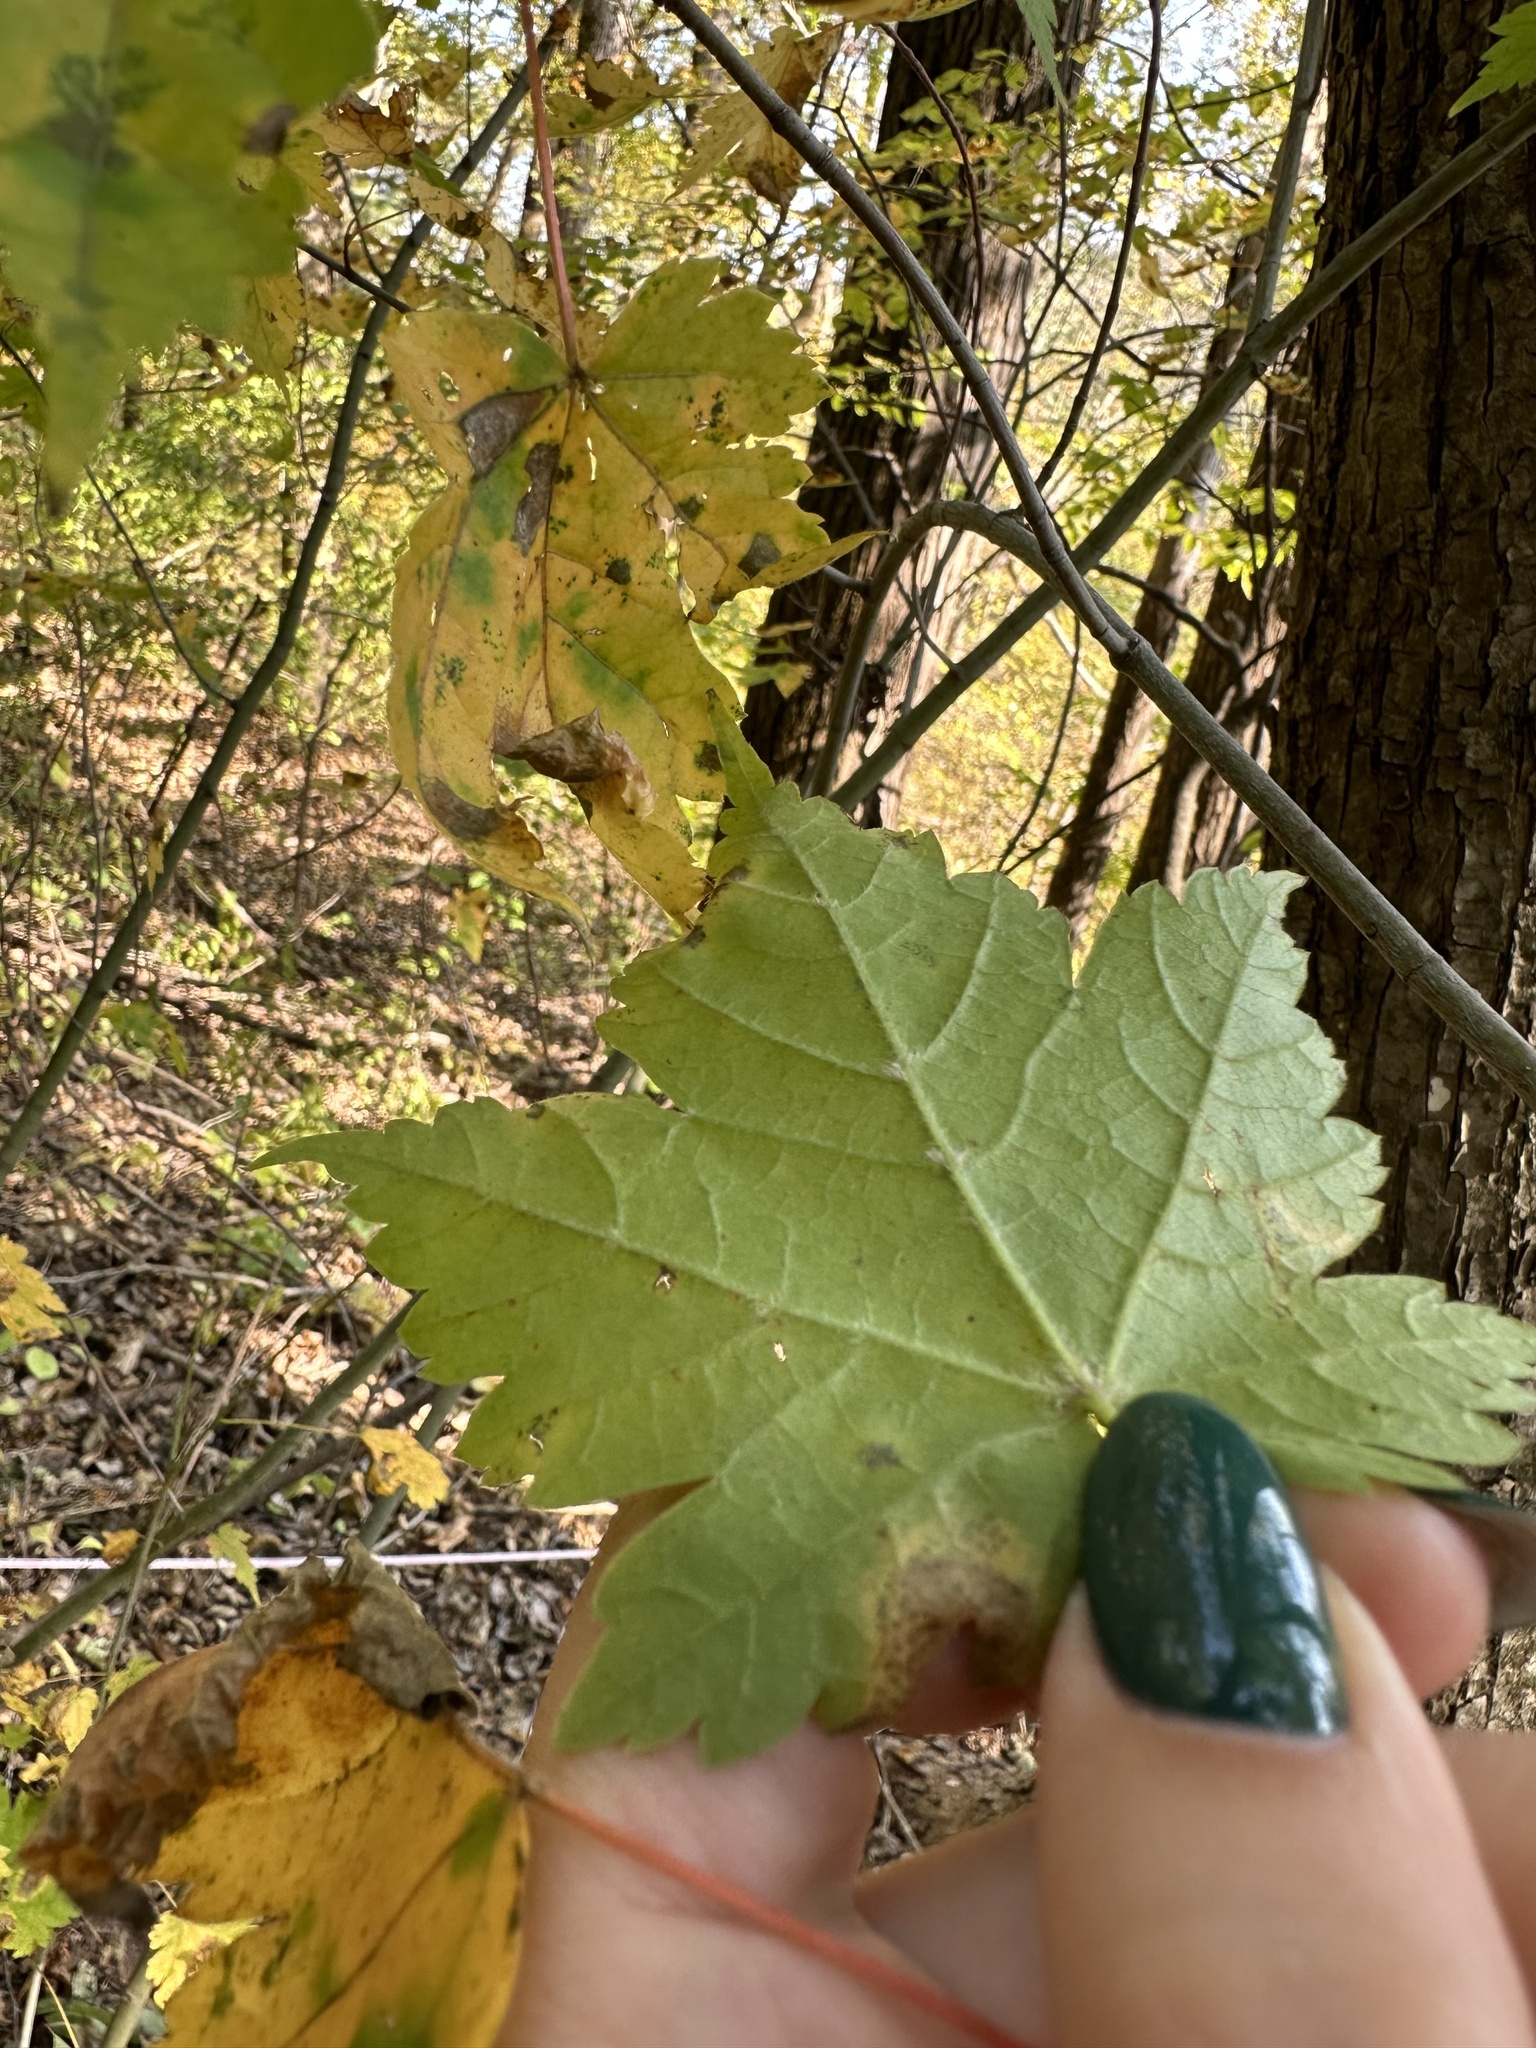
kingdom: Plantae
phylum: Tracheophyta
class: Magnoliopsida
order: Sapindales
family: Sapindaceae
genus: Acer
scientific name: Acer barbinerve
